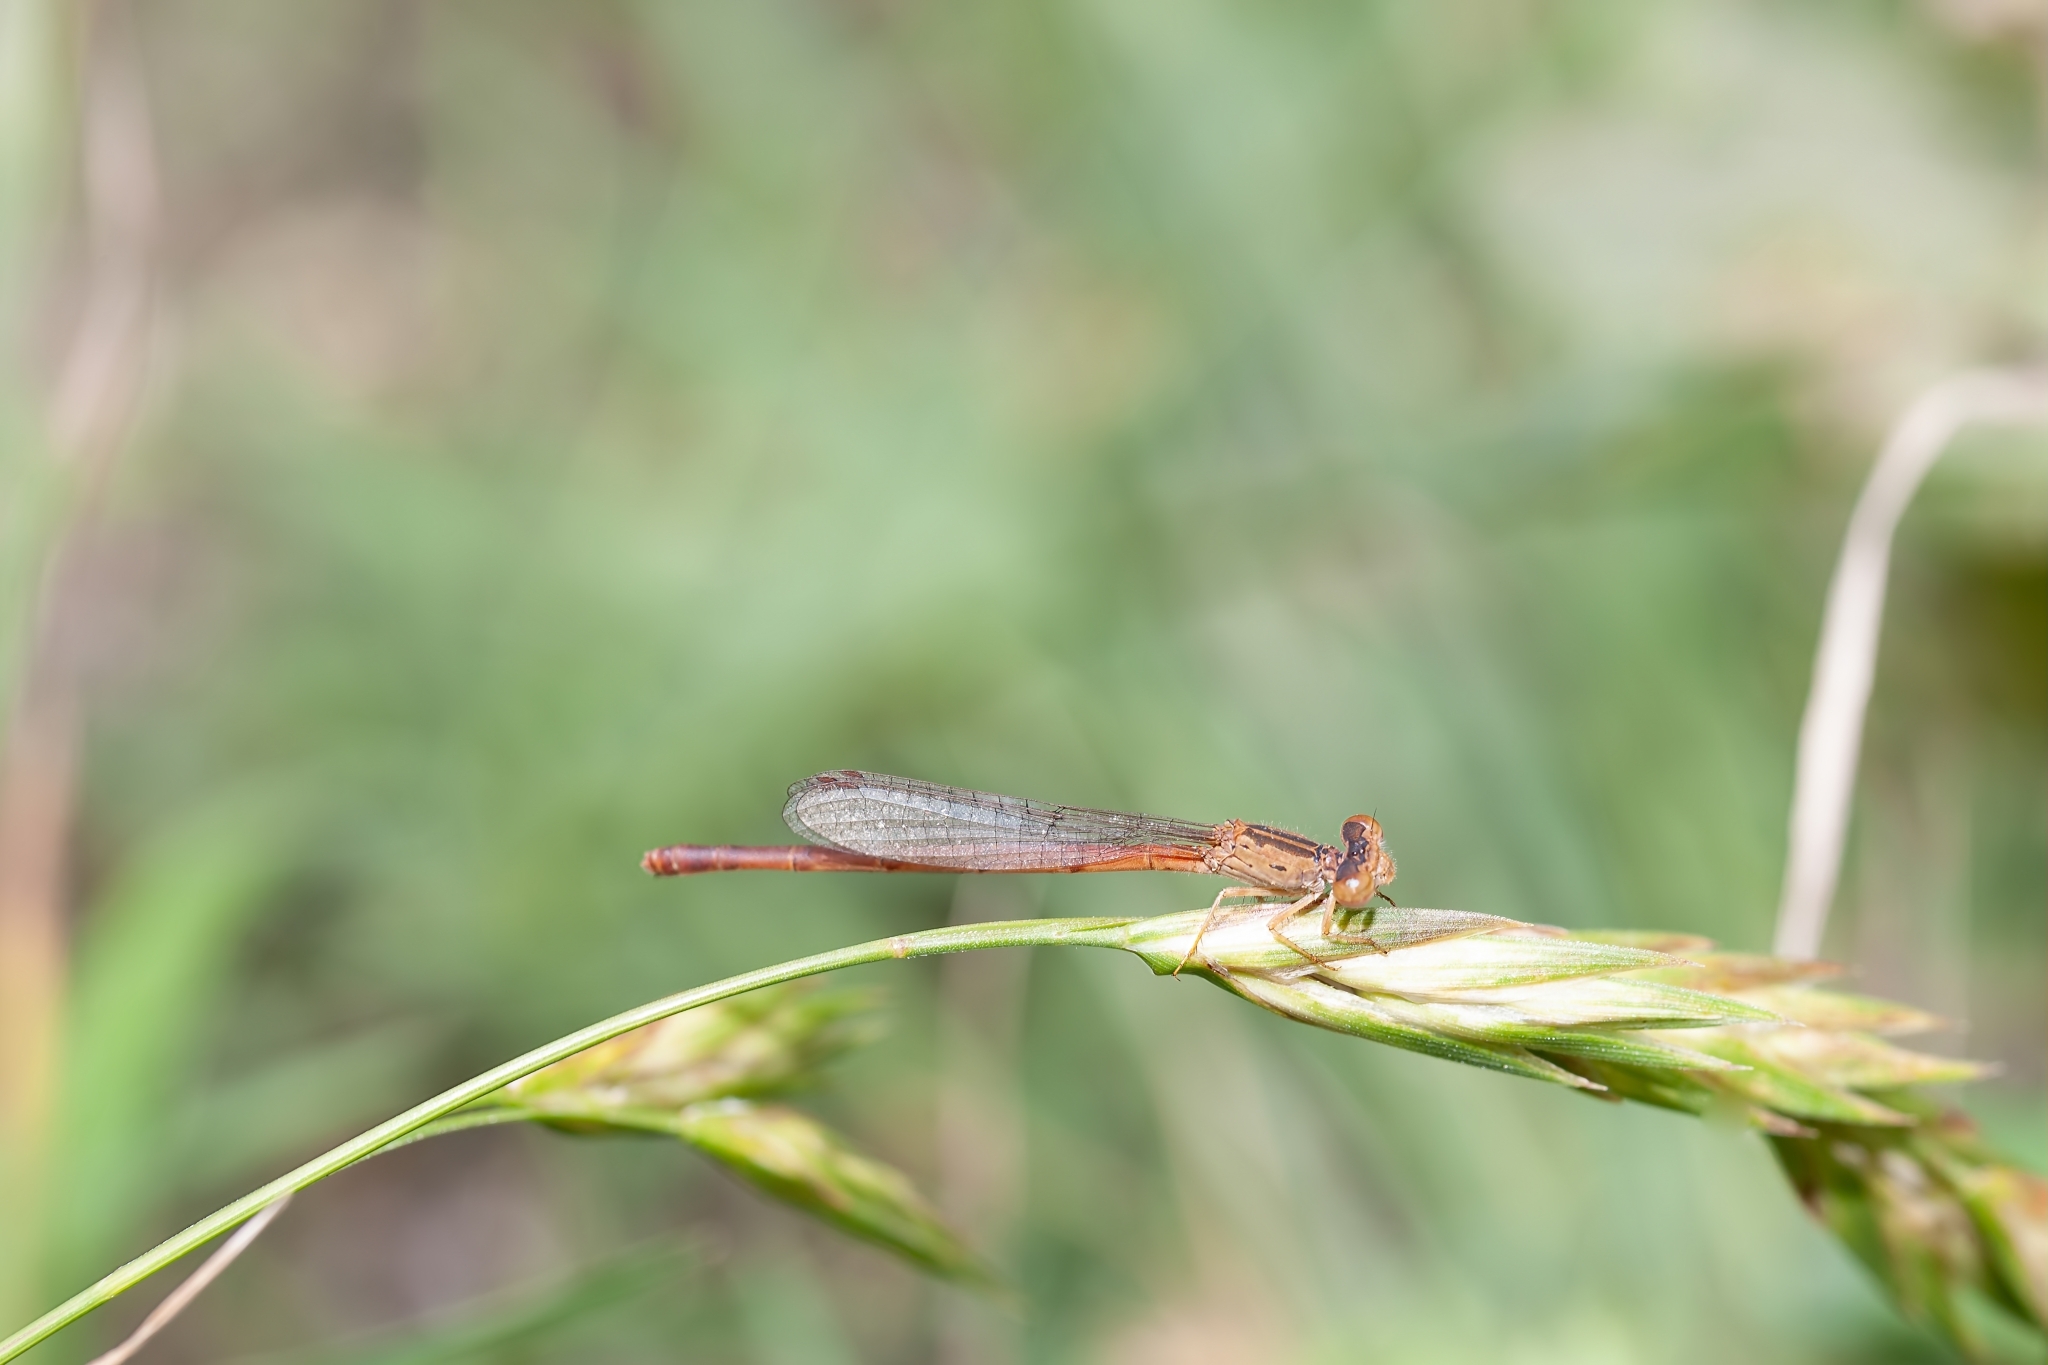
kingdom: Animalia
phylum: Arthropoda
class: Insecta
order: Odonata
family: Coenagrionidae
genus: Telebasis
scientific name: Telebasis salva
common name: Desert firetail
